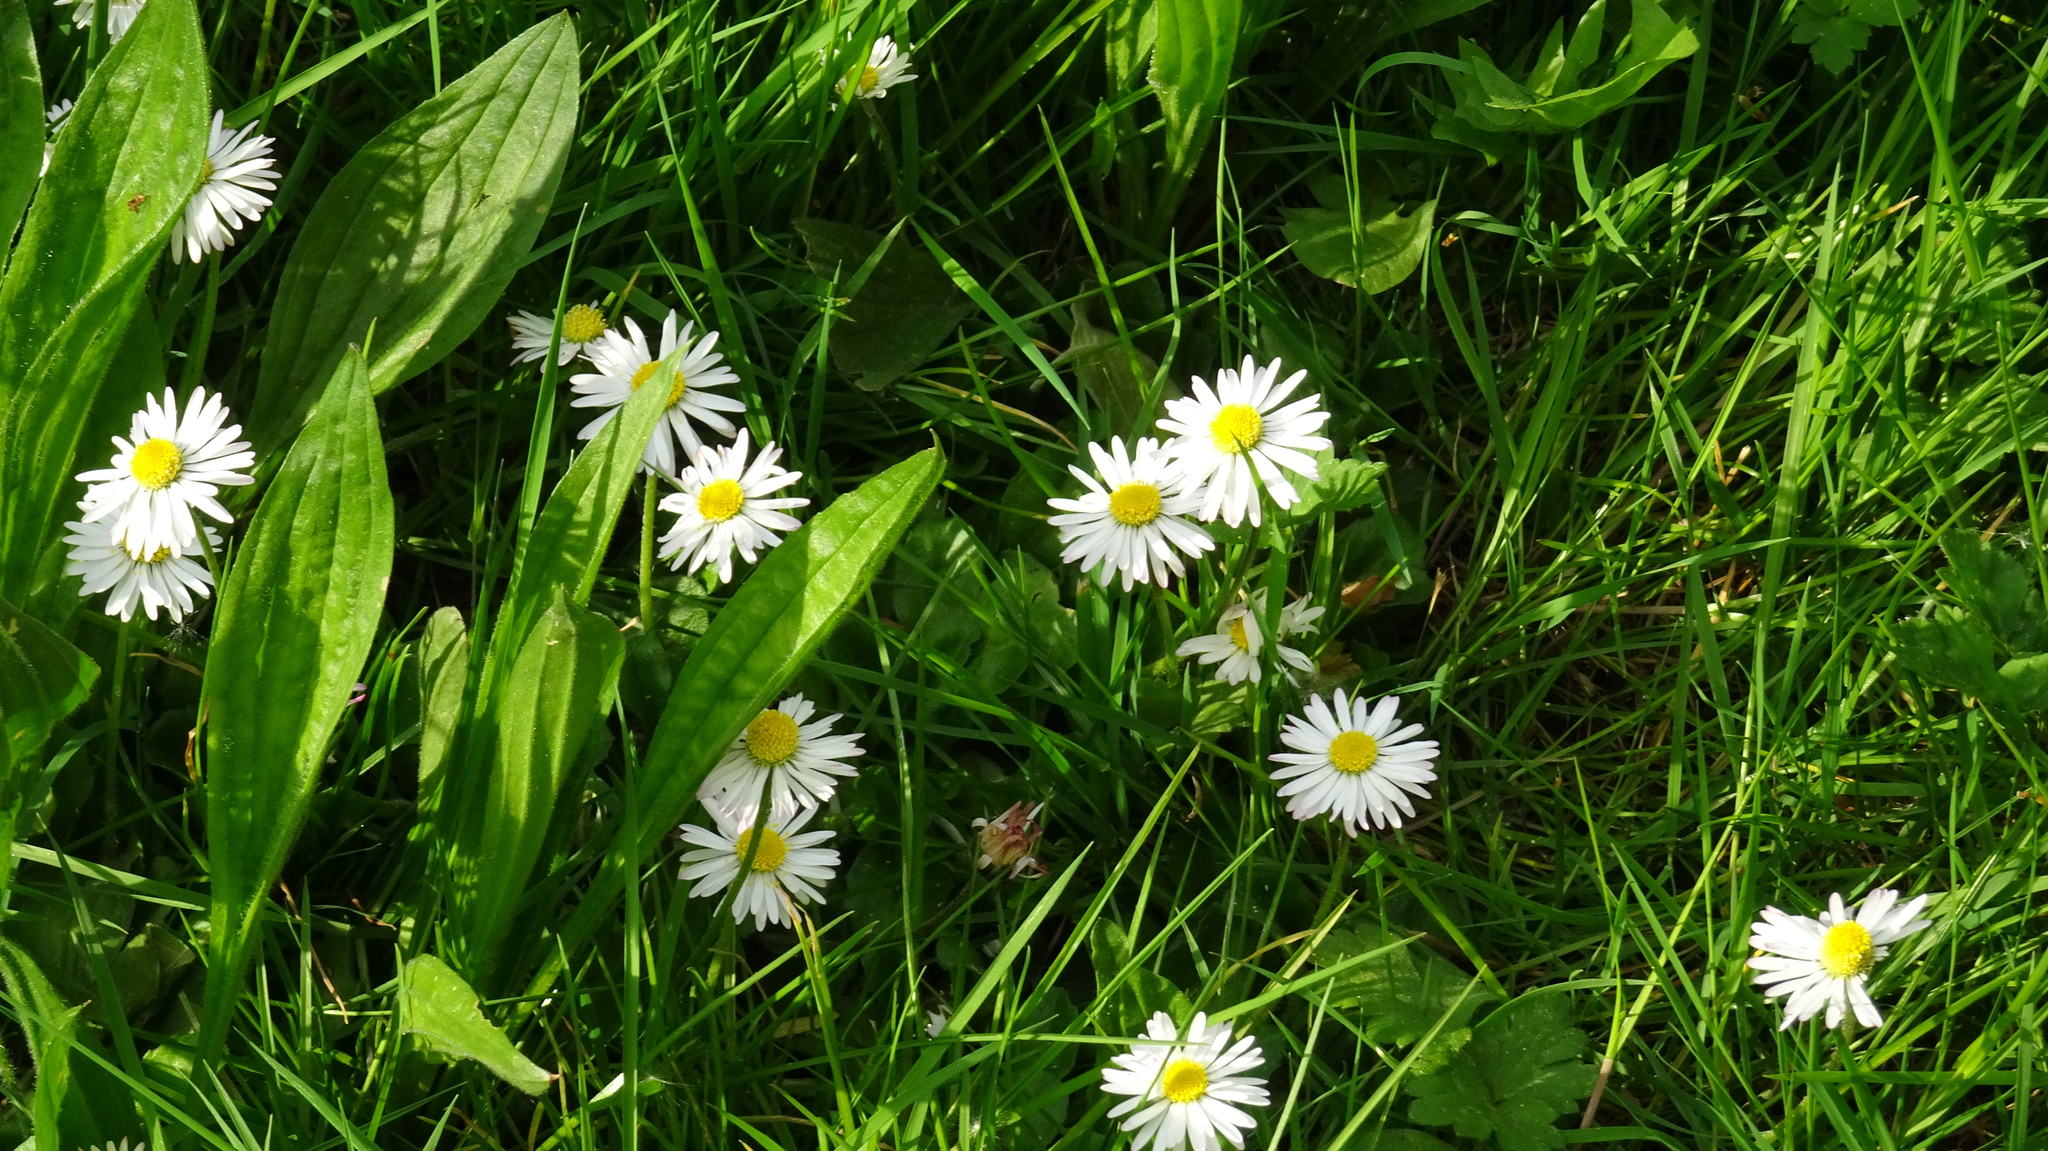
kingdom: Plantae
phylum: Tracheophyta
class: Magnoliopsida
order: Asterales
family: Asteraceae
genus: Bellis
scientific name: Bellis perennis
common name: Lawndaisy
